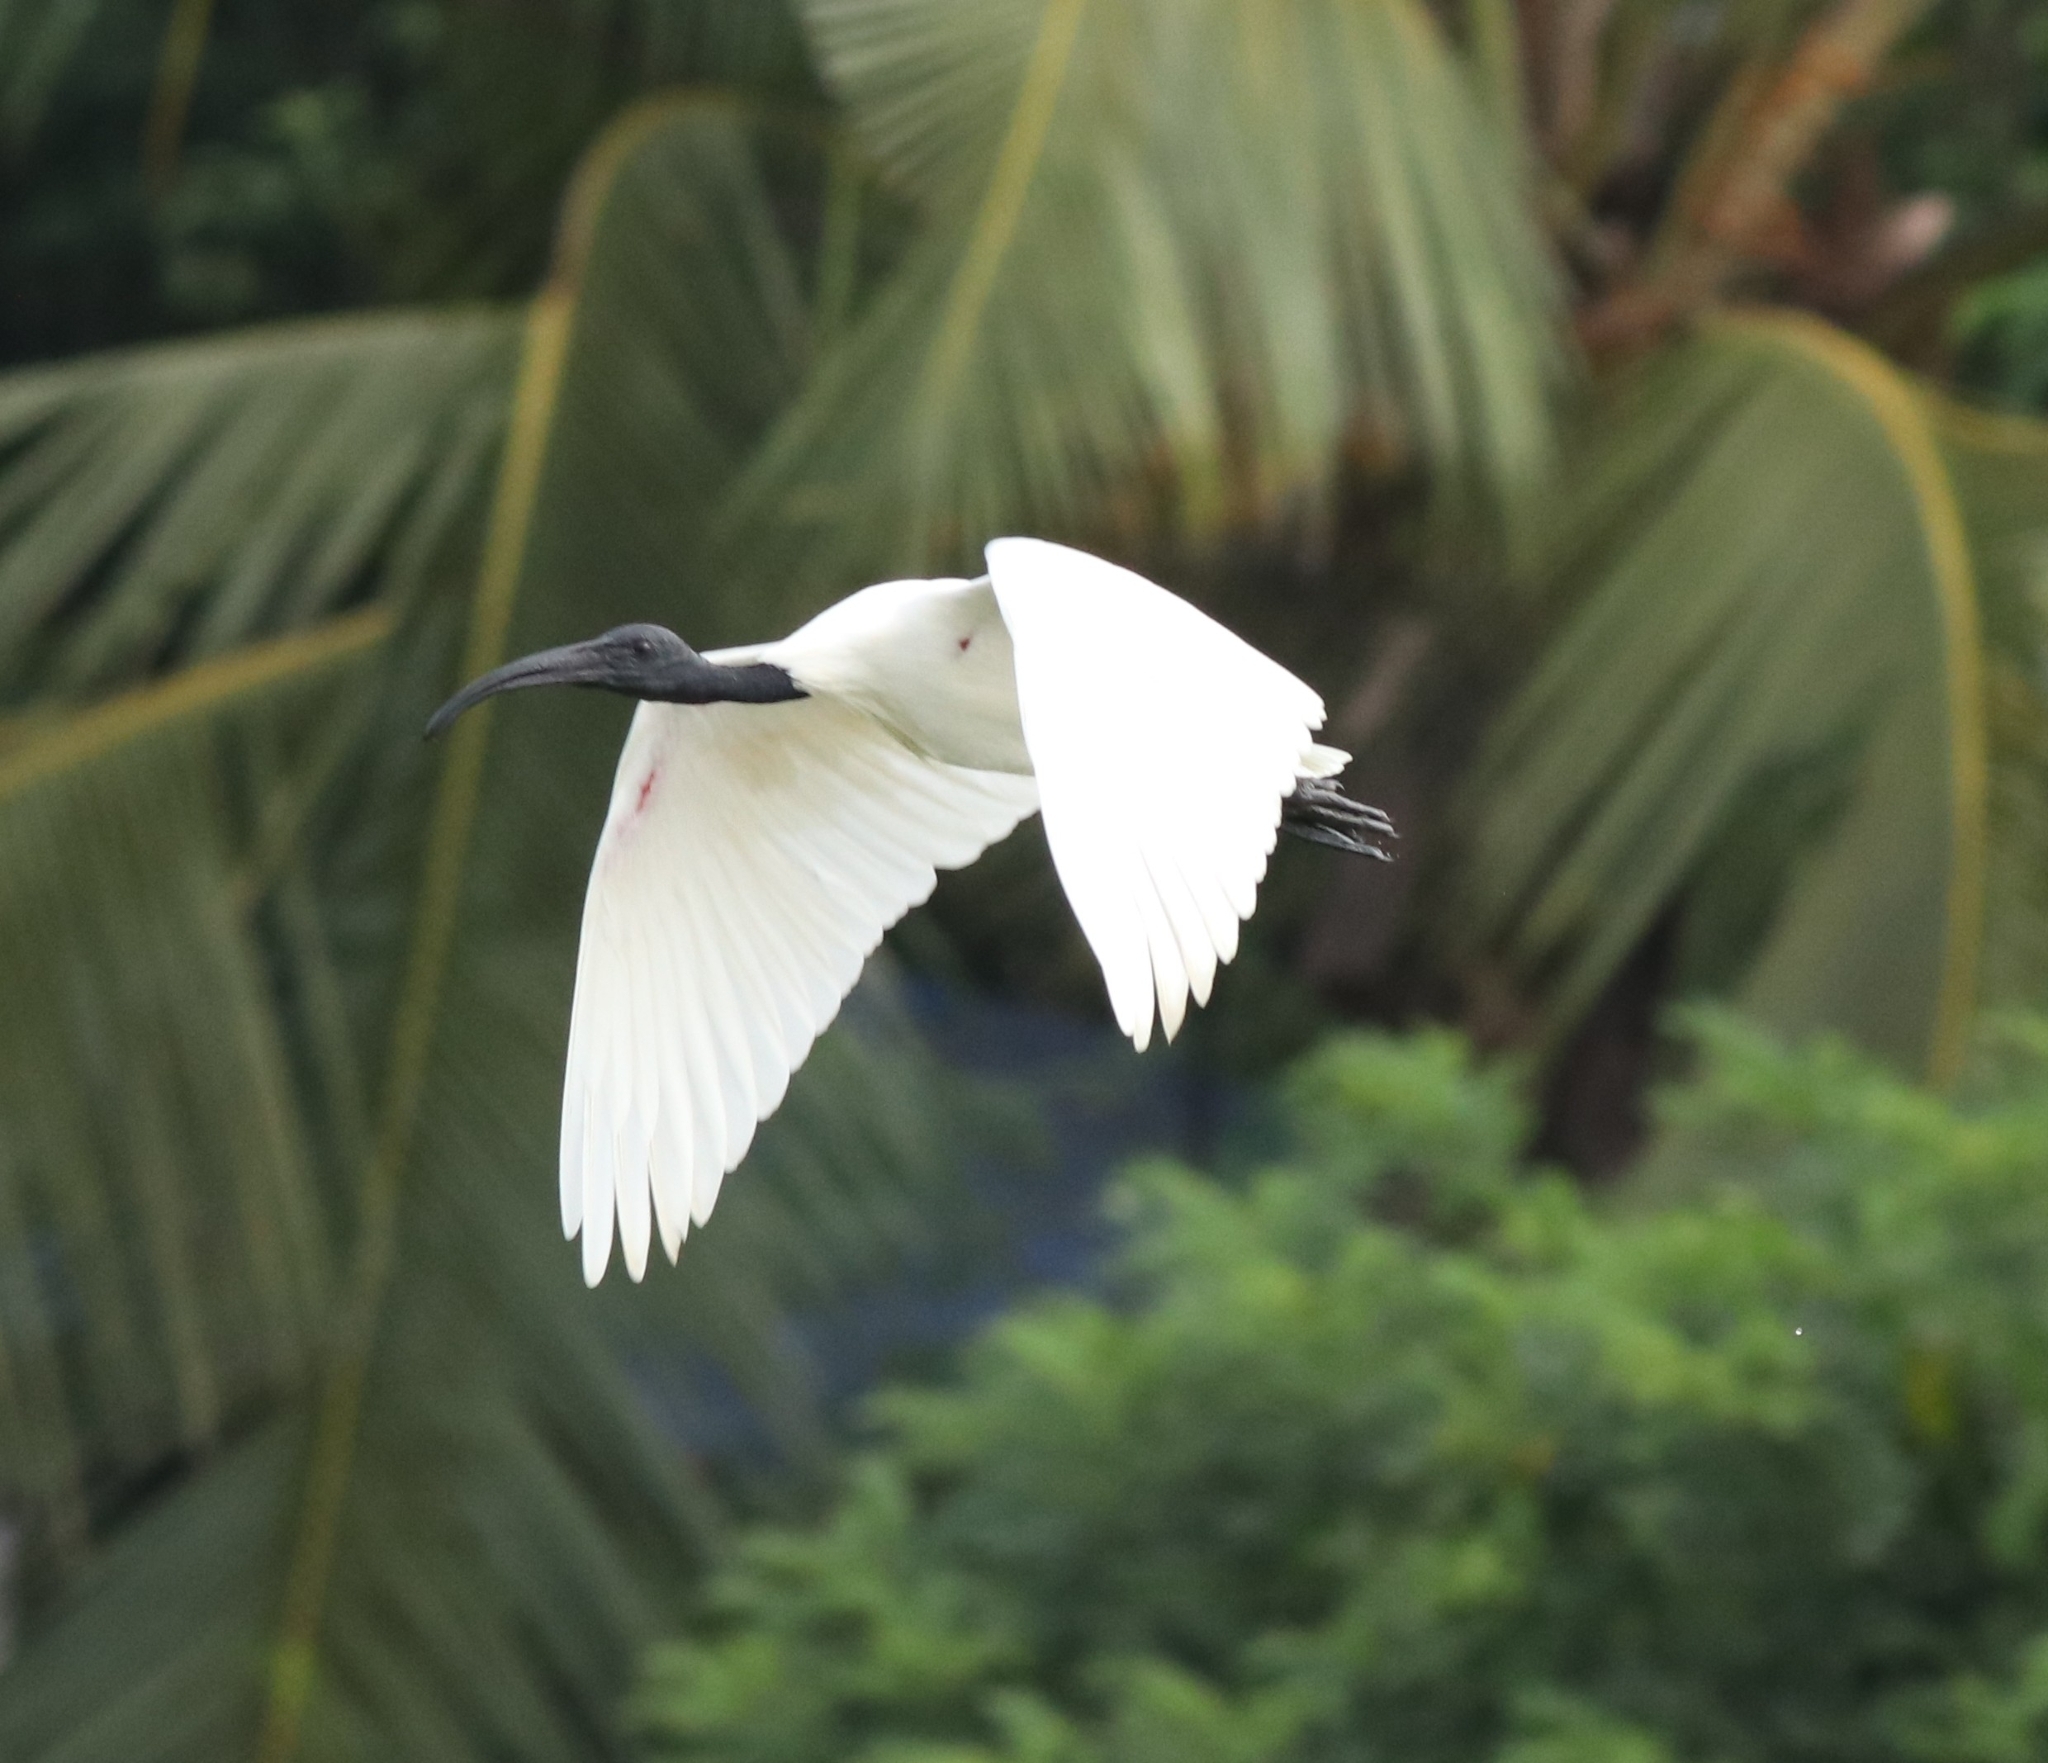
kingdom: Animalia
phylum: Chordata
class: Aves
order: Pelecaniformes
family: Threskiornithidae
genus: Threskiornis
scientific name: Threskiornis melanocephalus
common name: Black-headed ibis
